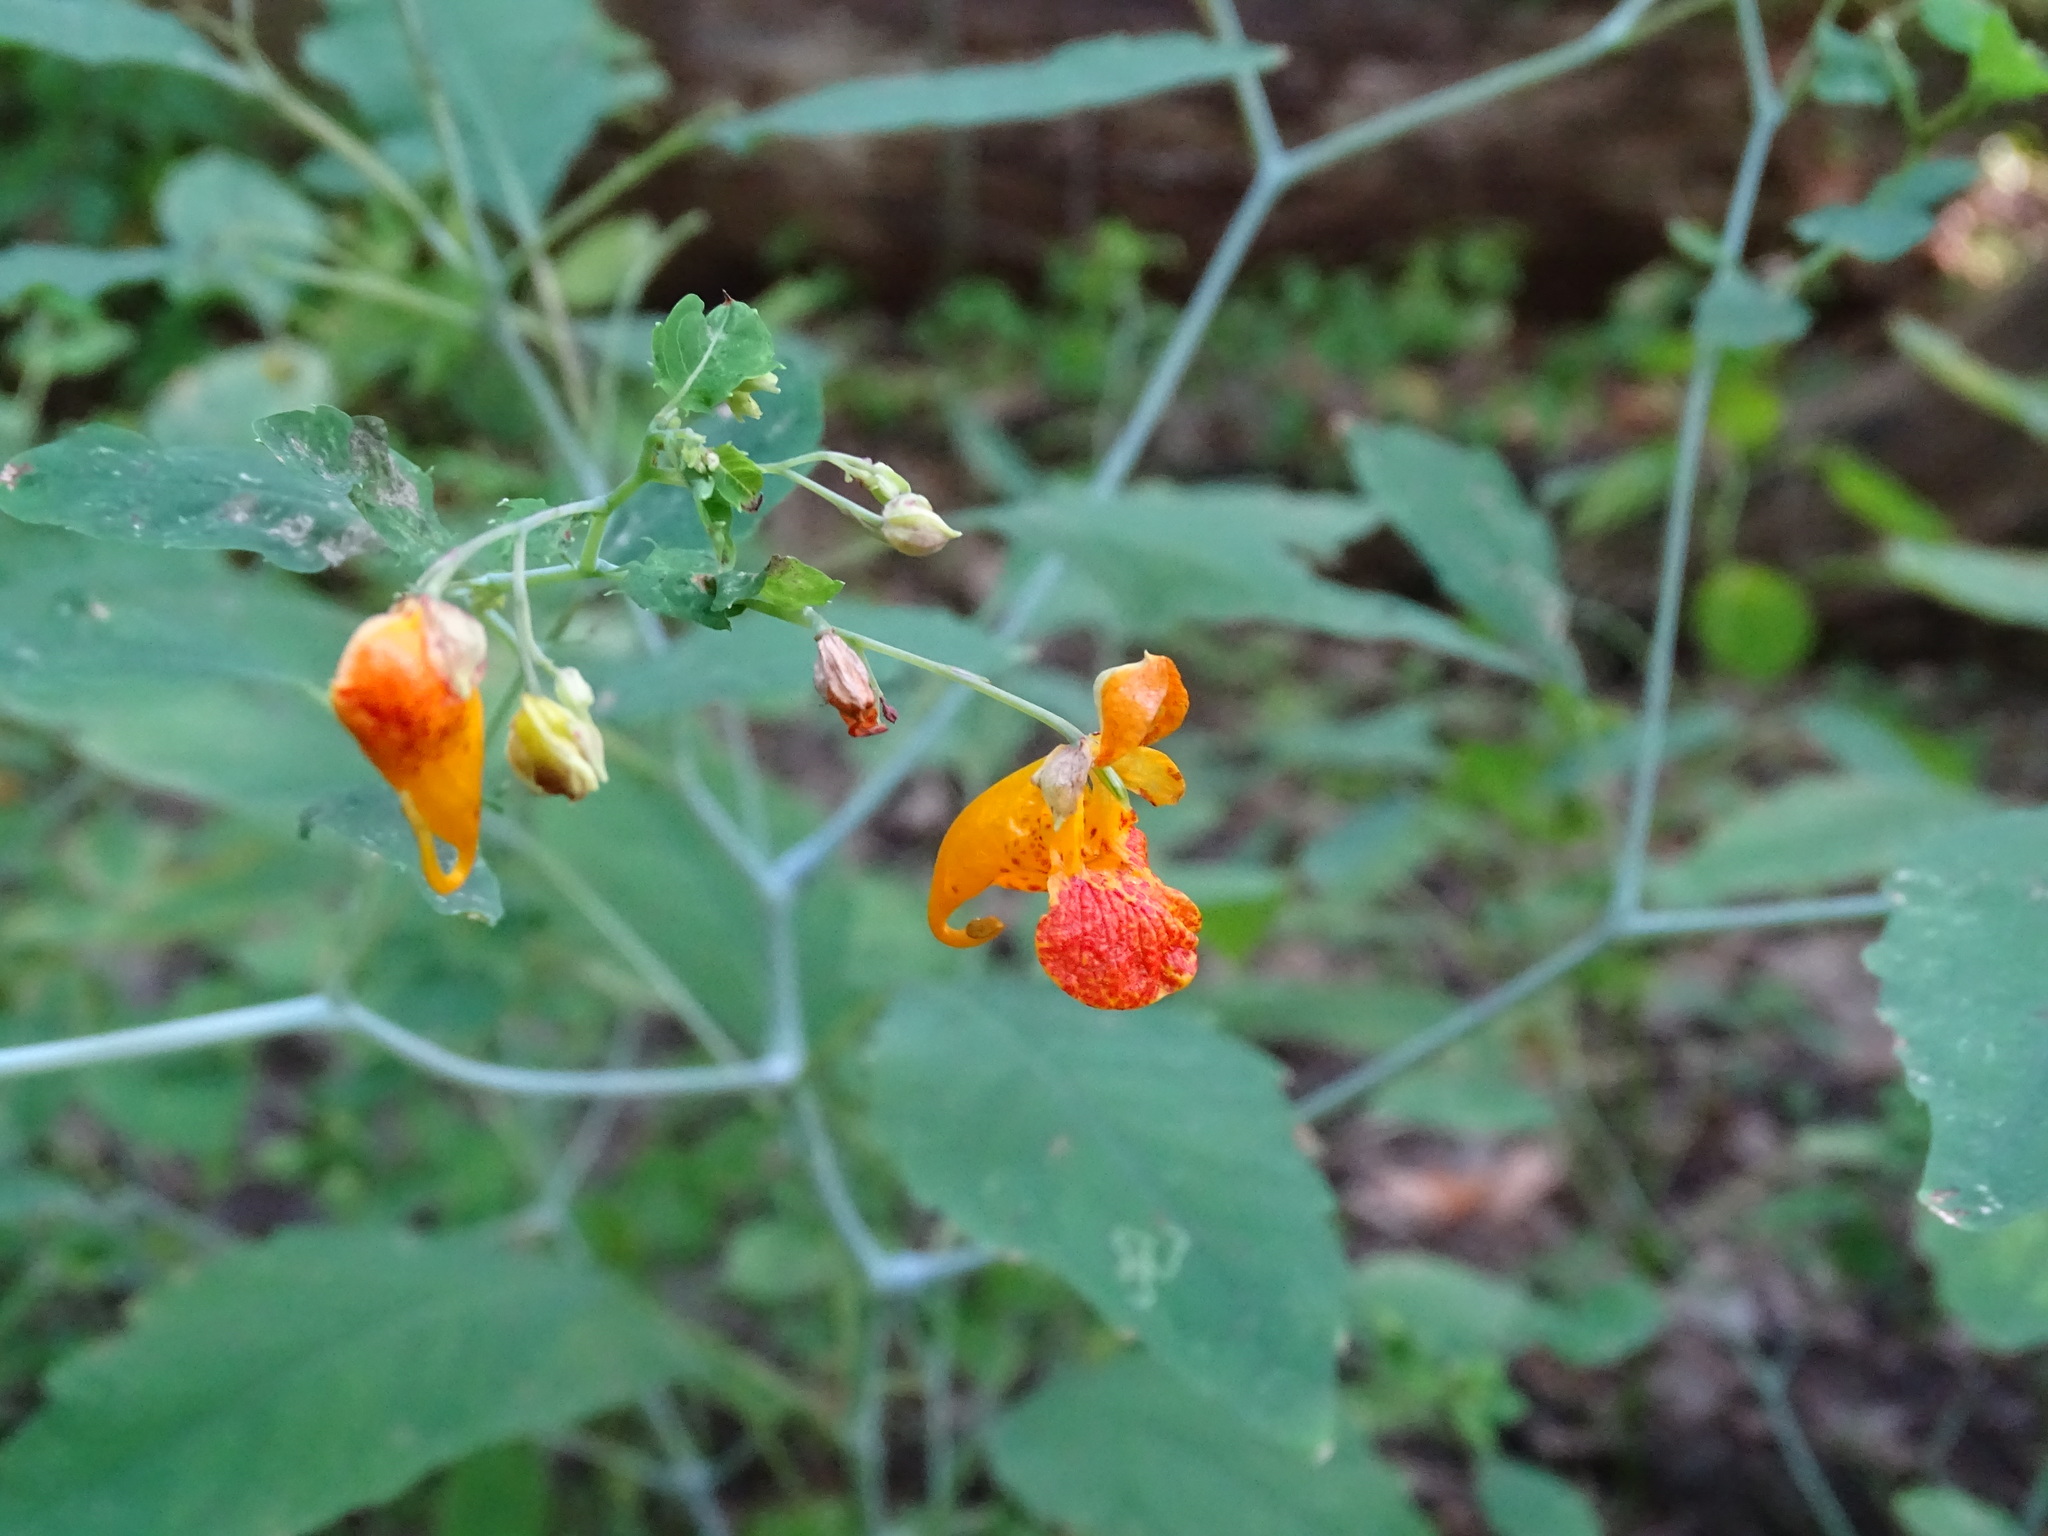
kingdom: Plantae
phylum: Tracheophyta
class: Magnoliopsida
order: Ericales
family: Balsaminaceae
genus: Impatiens
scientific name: Impatiens capensis
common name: Orange balsam
